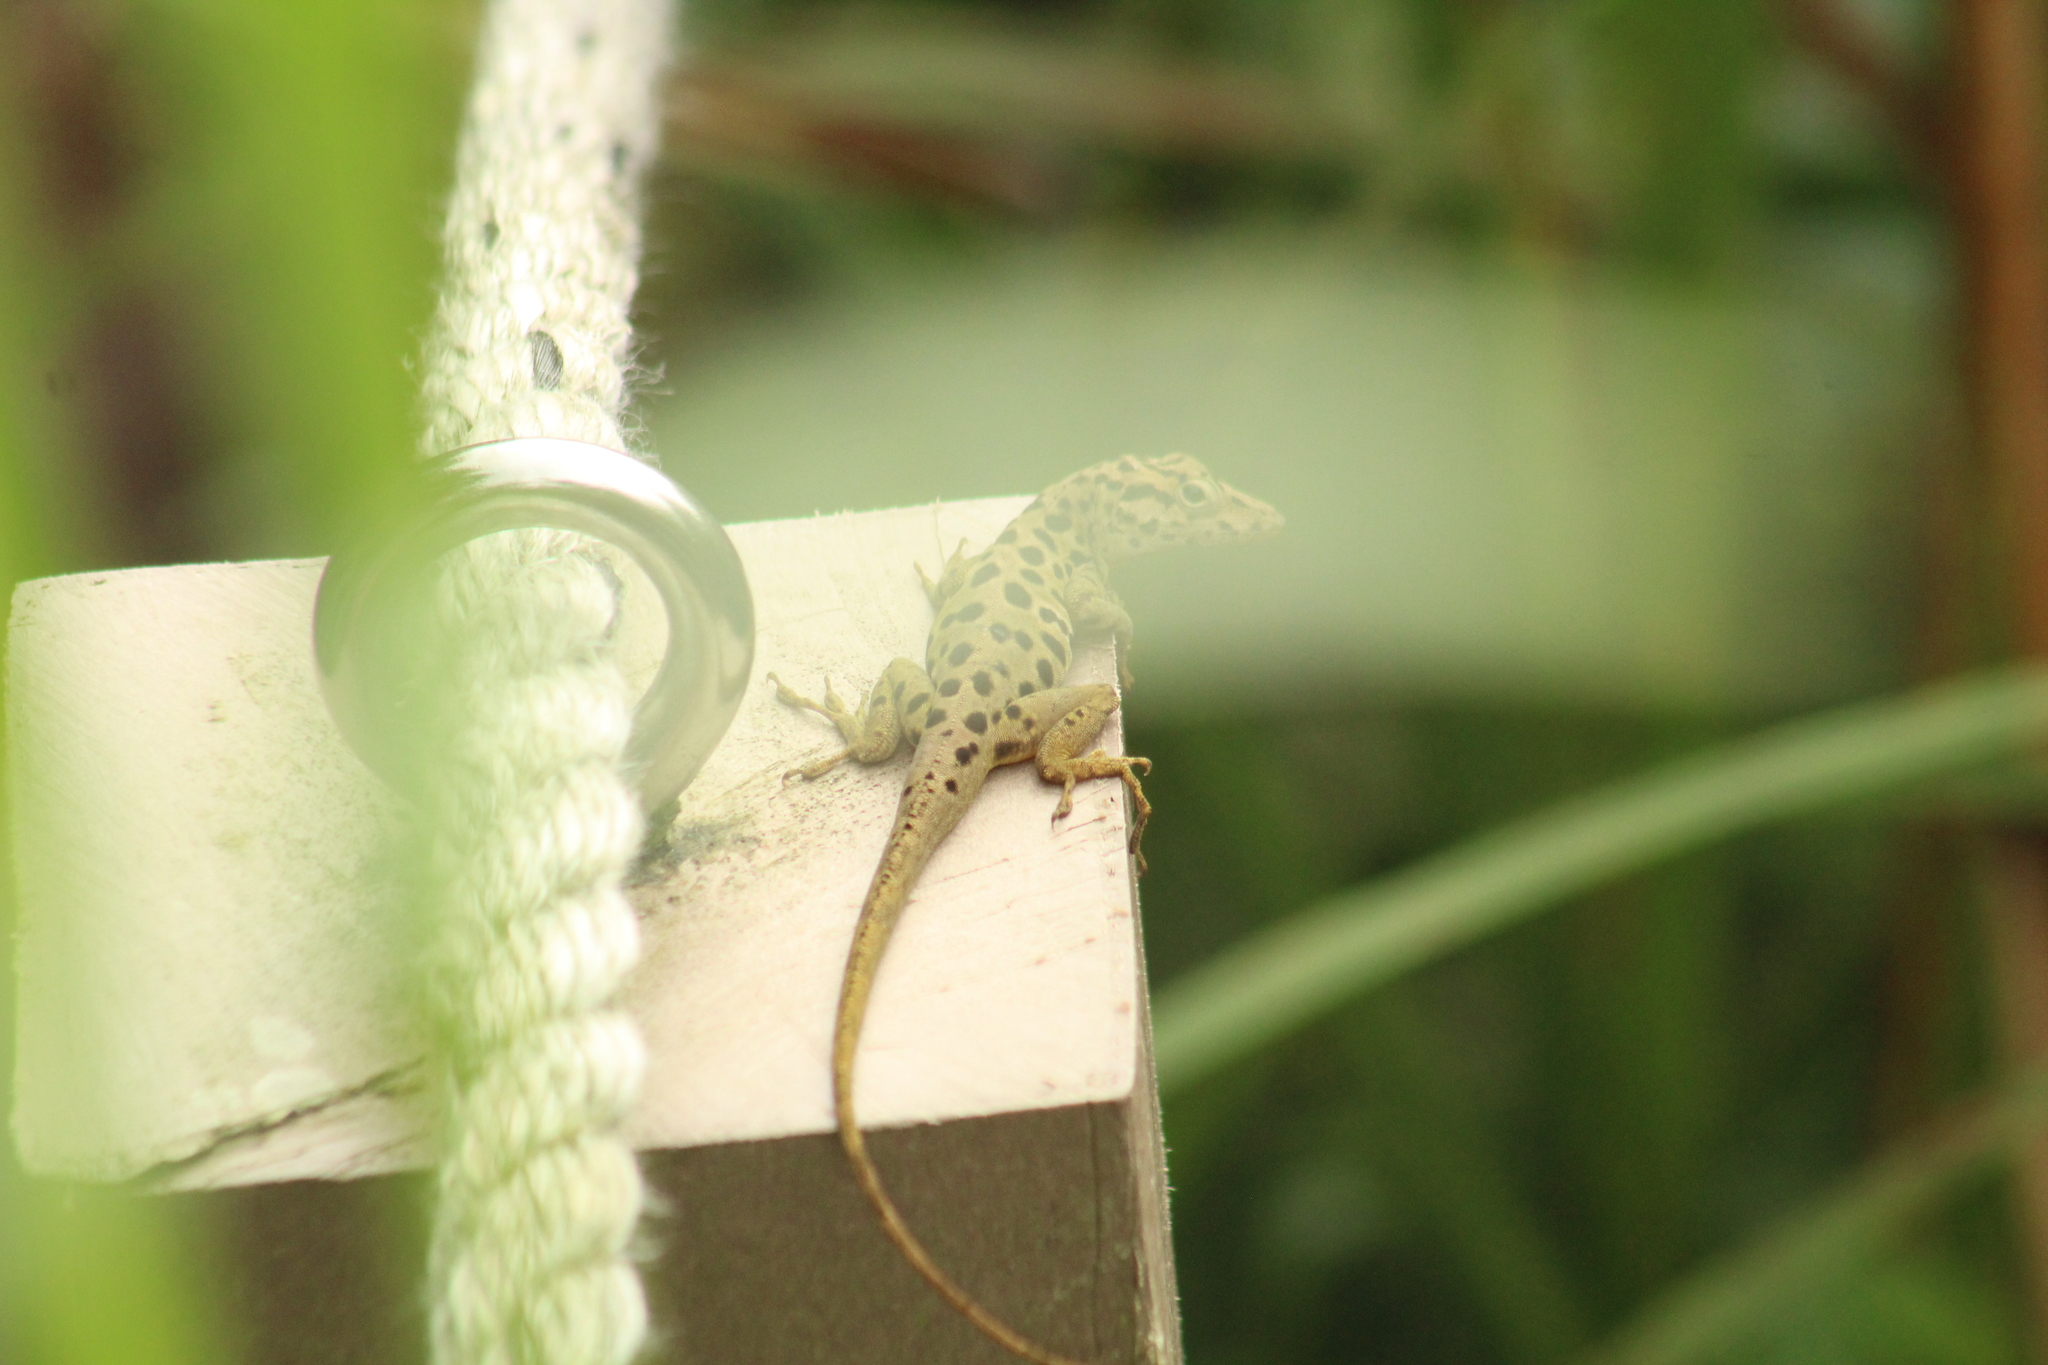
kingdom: Animalia
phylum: Chordata
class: Squamata
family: Dactyloidae
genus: Anolis
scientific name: Anolis sabanus
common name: Saba anole
